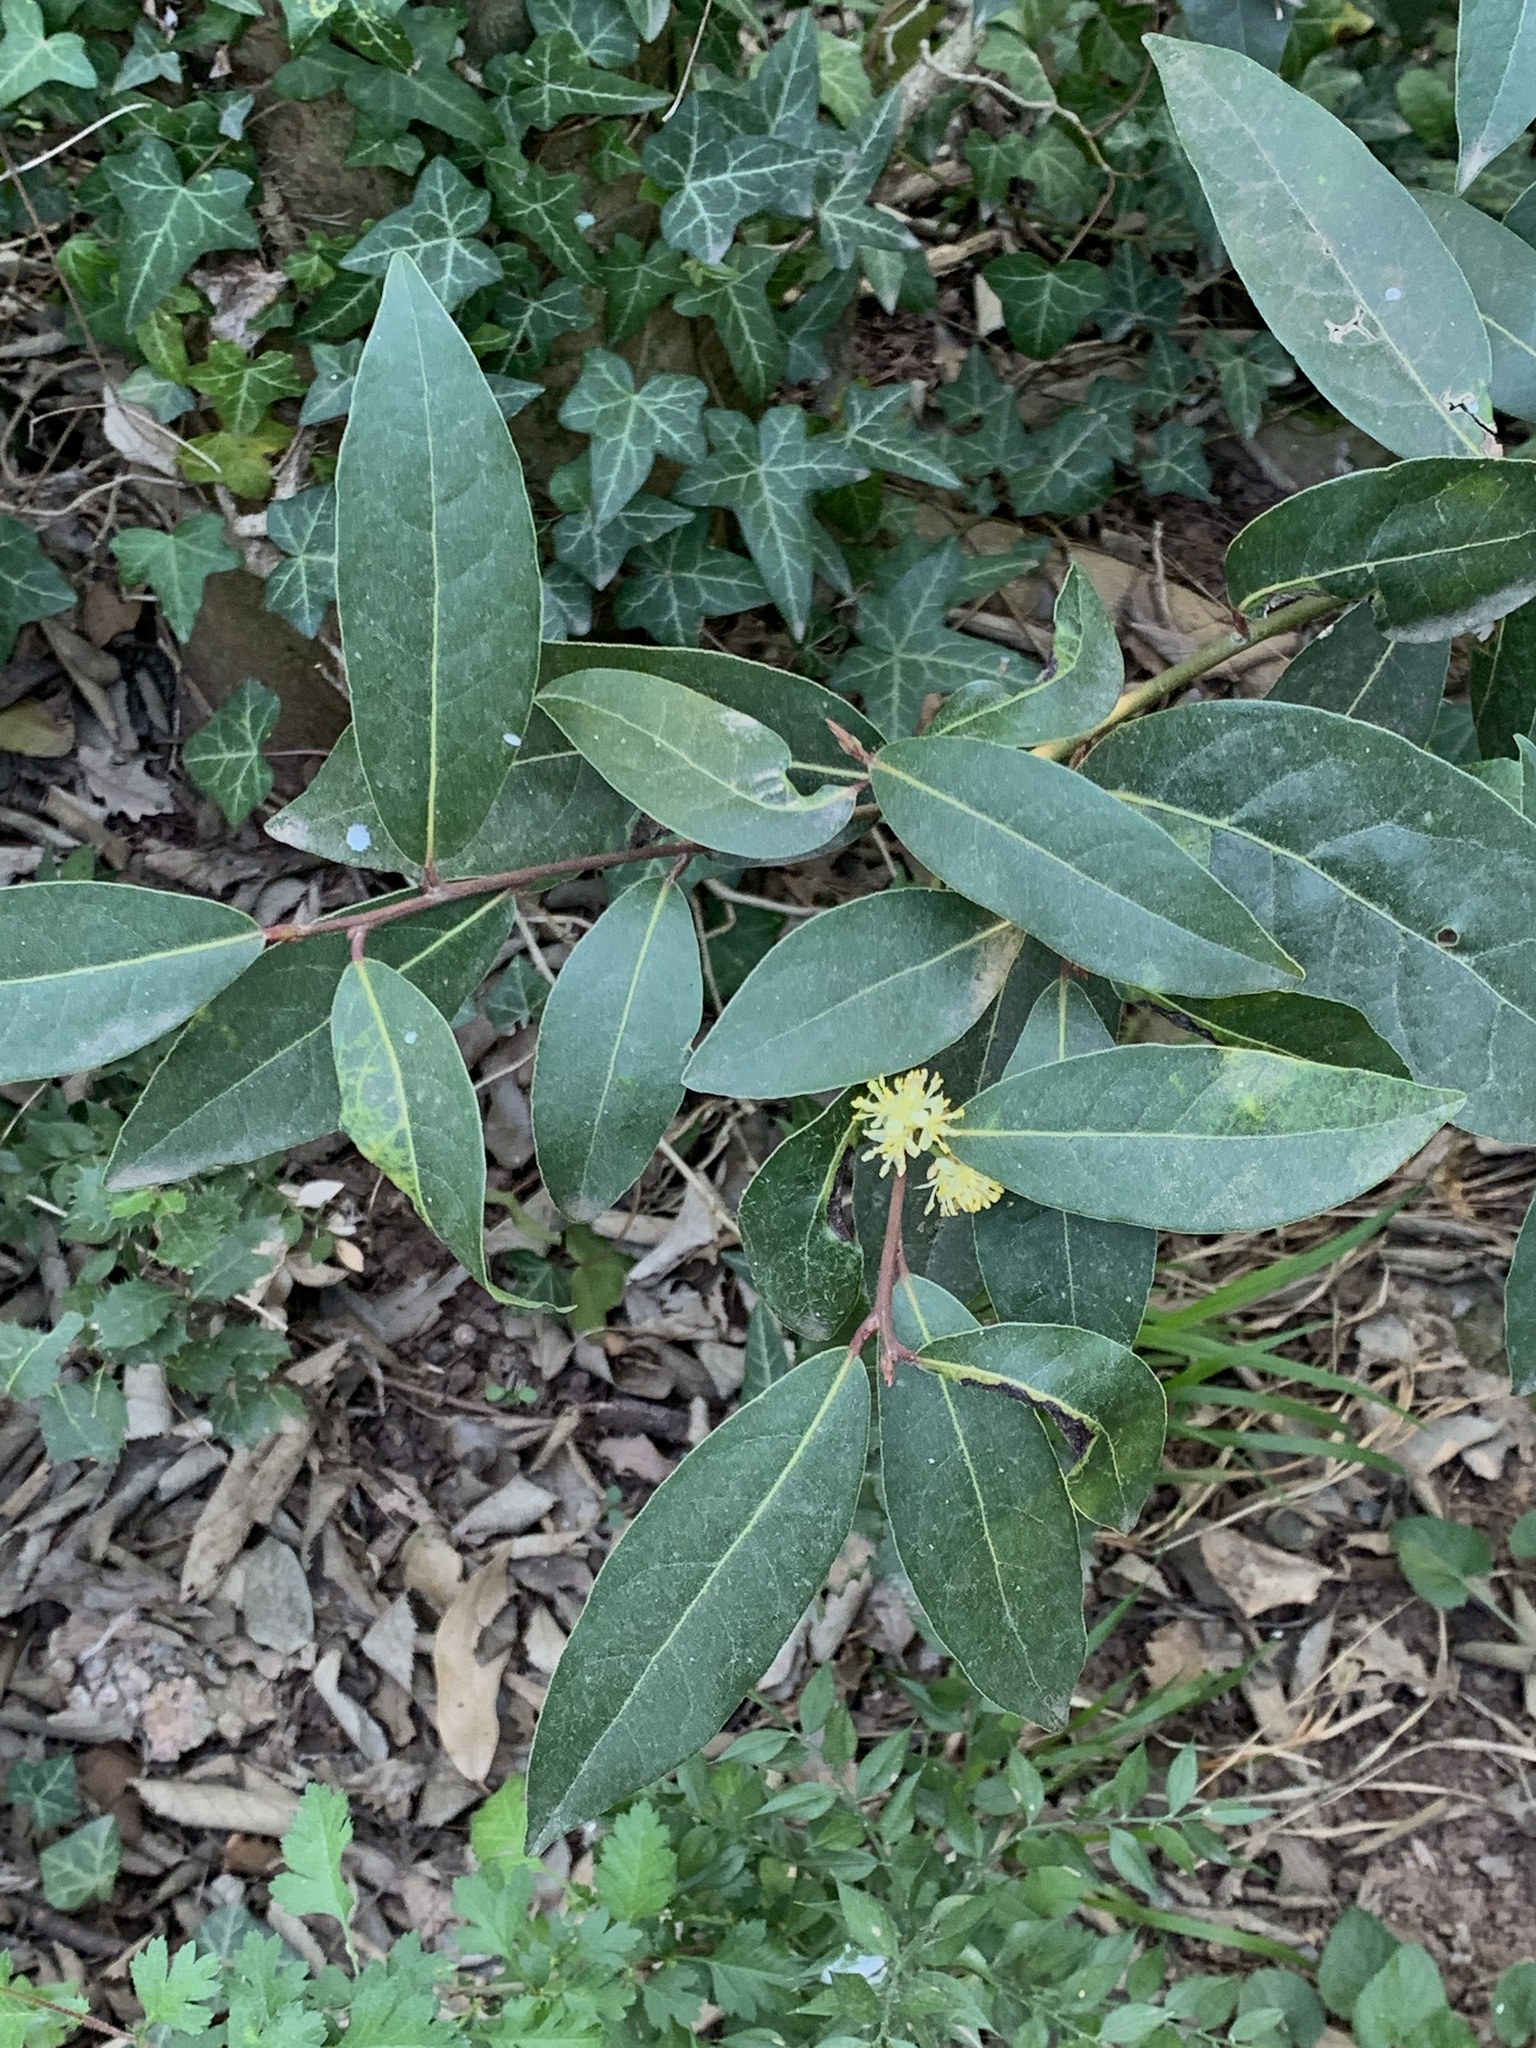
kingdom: Plantae
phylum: Tracheophyta
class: Magnoliopsida
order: Laurales
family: Lauraceae
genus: Laurus
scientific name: Laurus nobilis
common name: Bay
